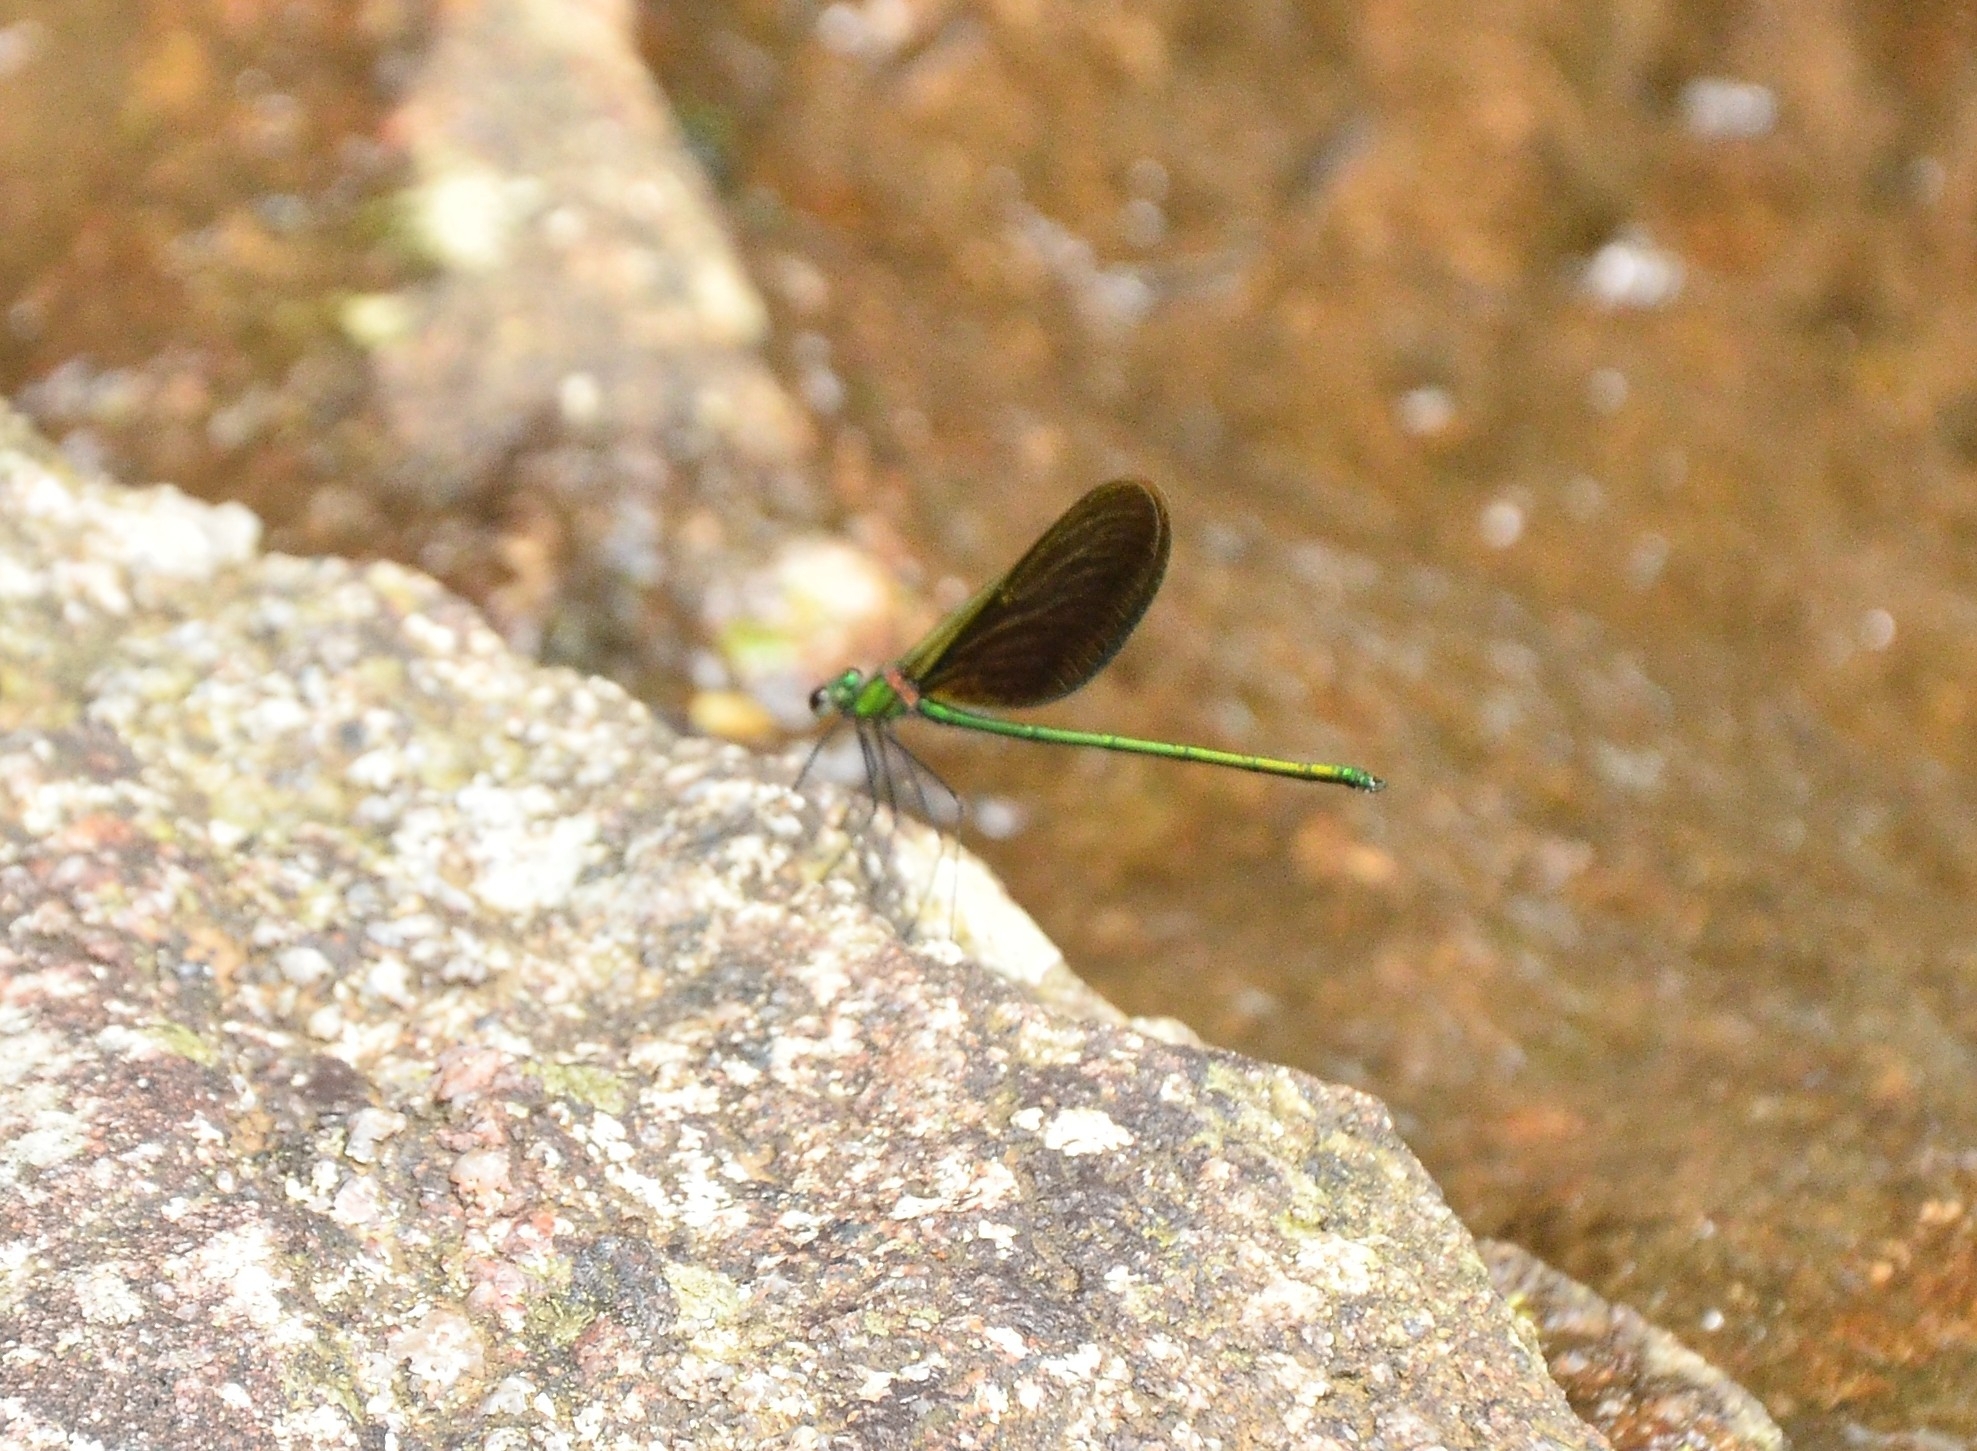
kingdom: Animalia
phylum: Arthropoda
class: Insecta
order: Odonata
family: Calopterygidae
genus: Neurobasis
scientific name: Neurobasis chinensis
